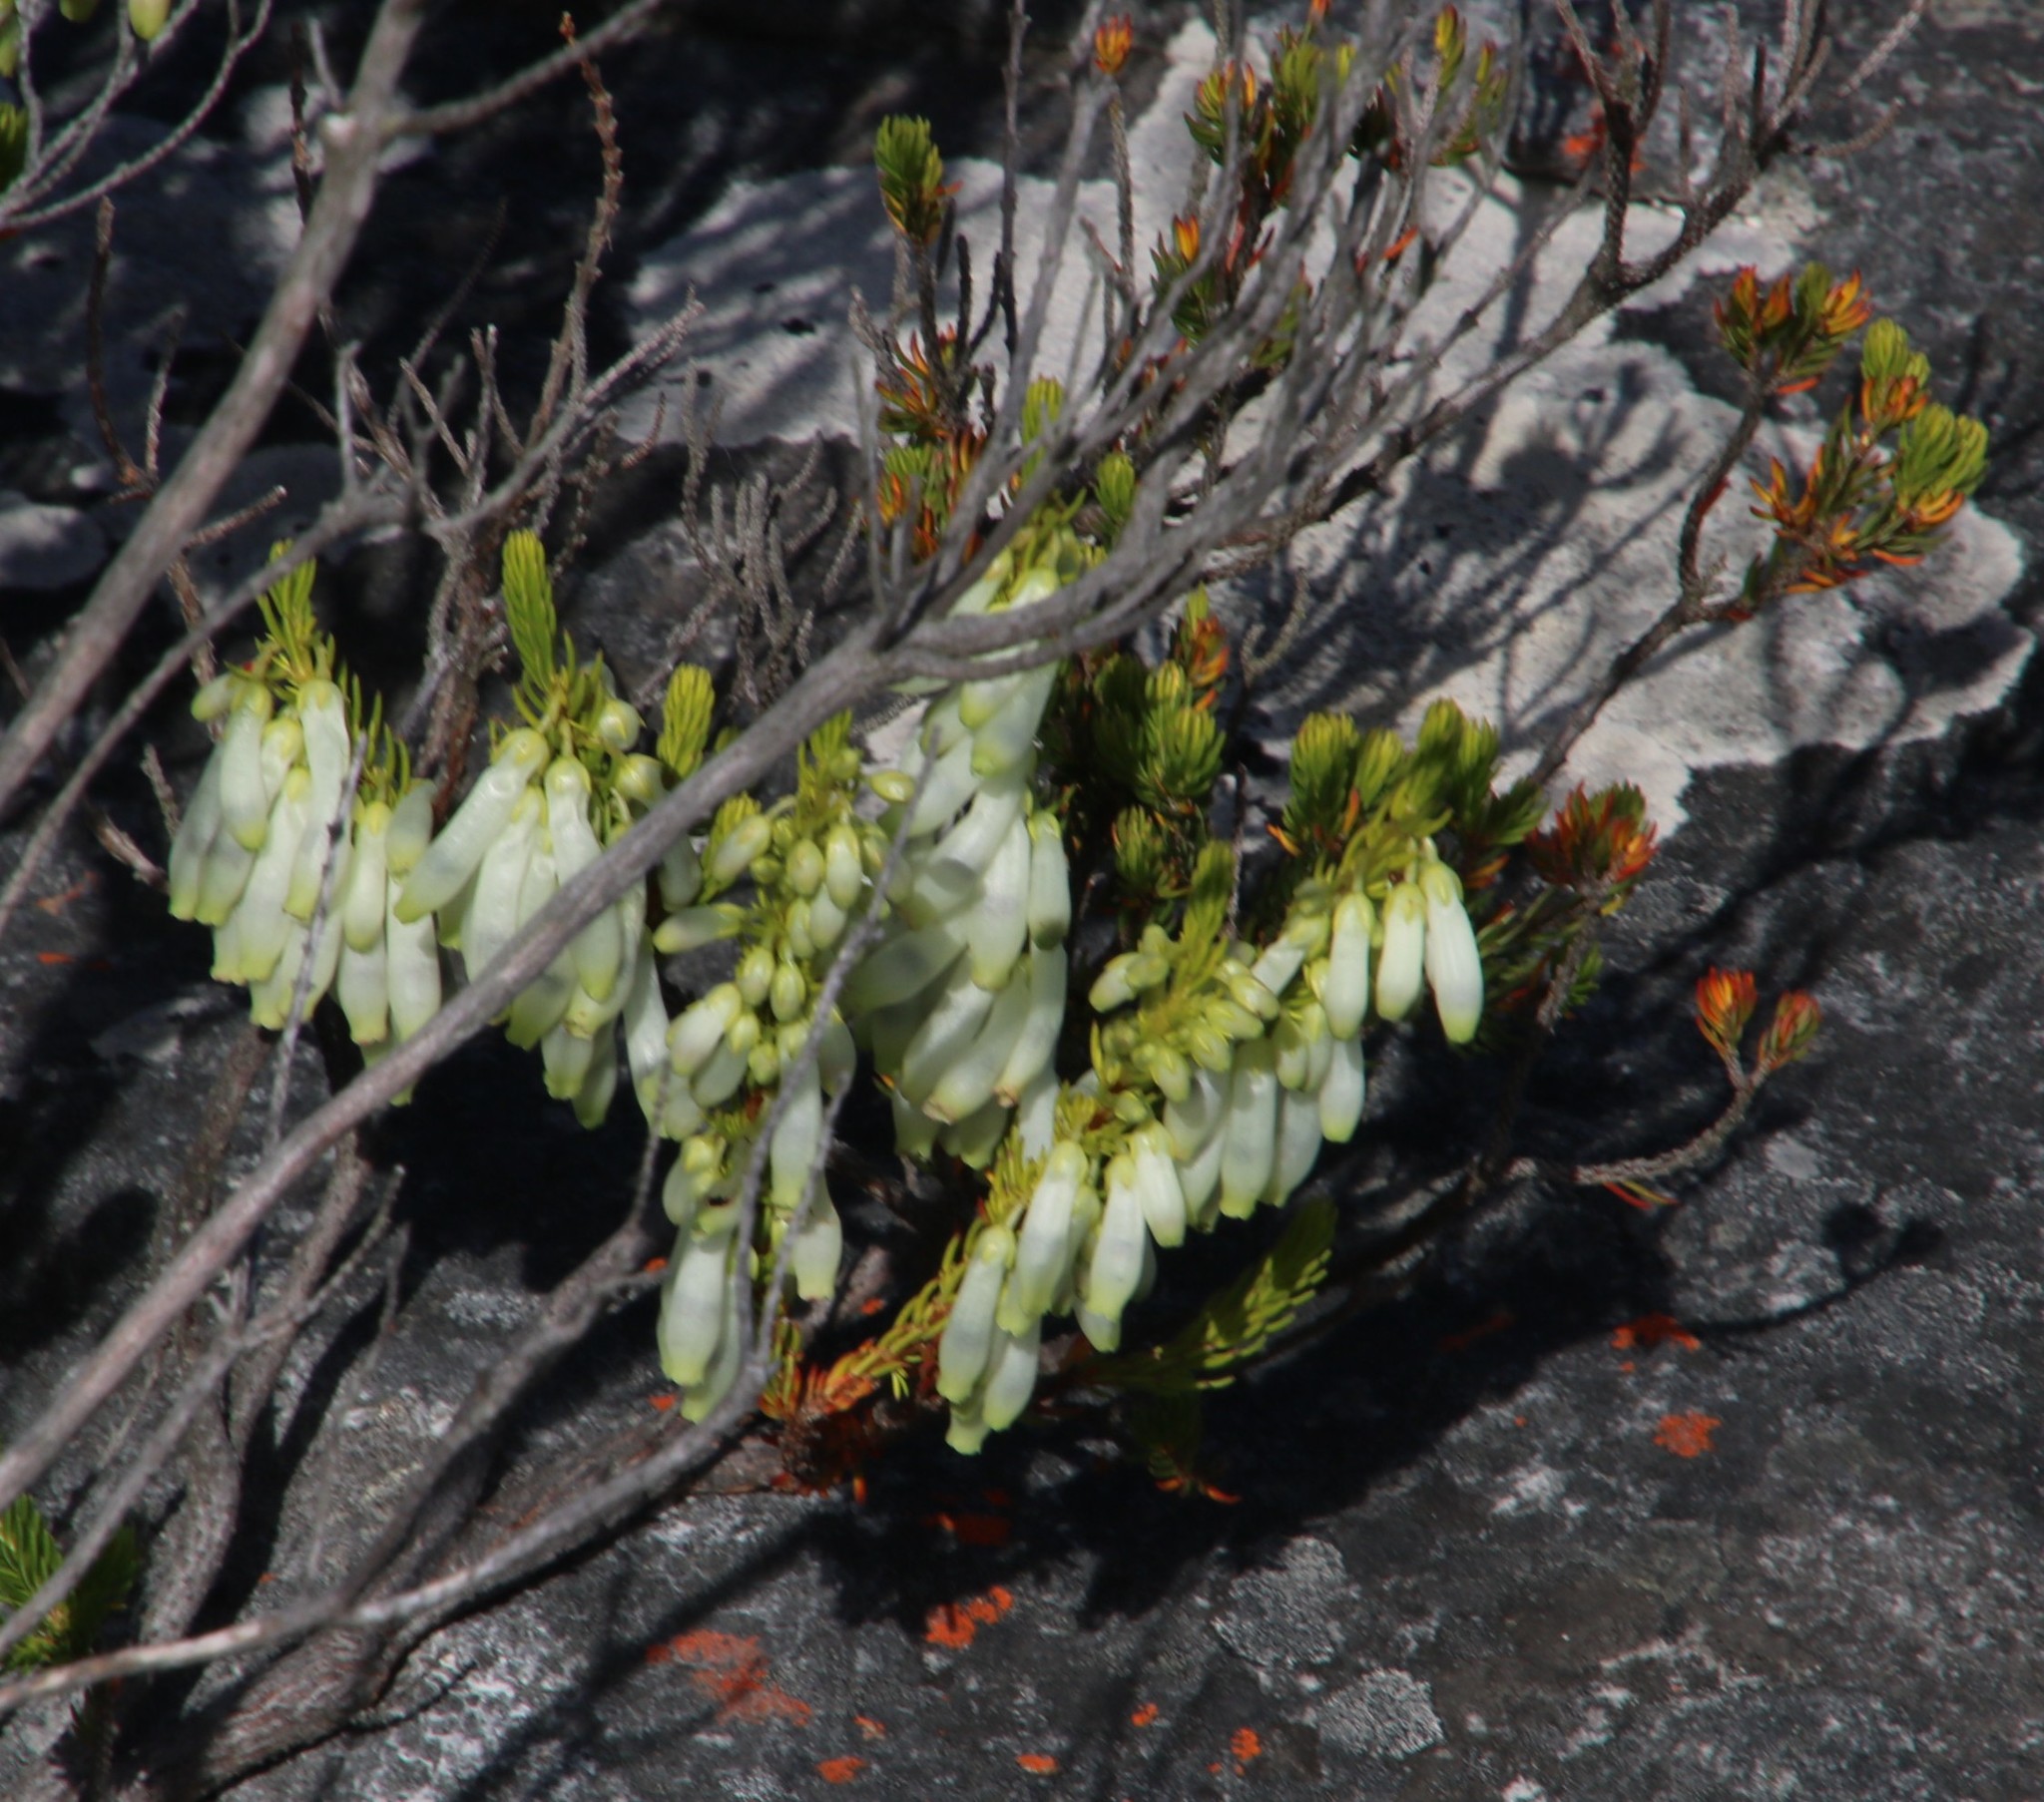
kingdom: Plantae
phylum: Tracheophyta
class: Magnoliopsida
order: Ericales
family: Ericaceae
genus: Erica
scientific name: Erica mammosa
